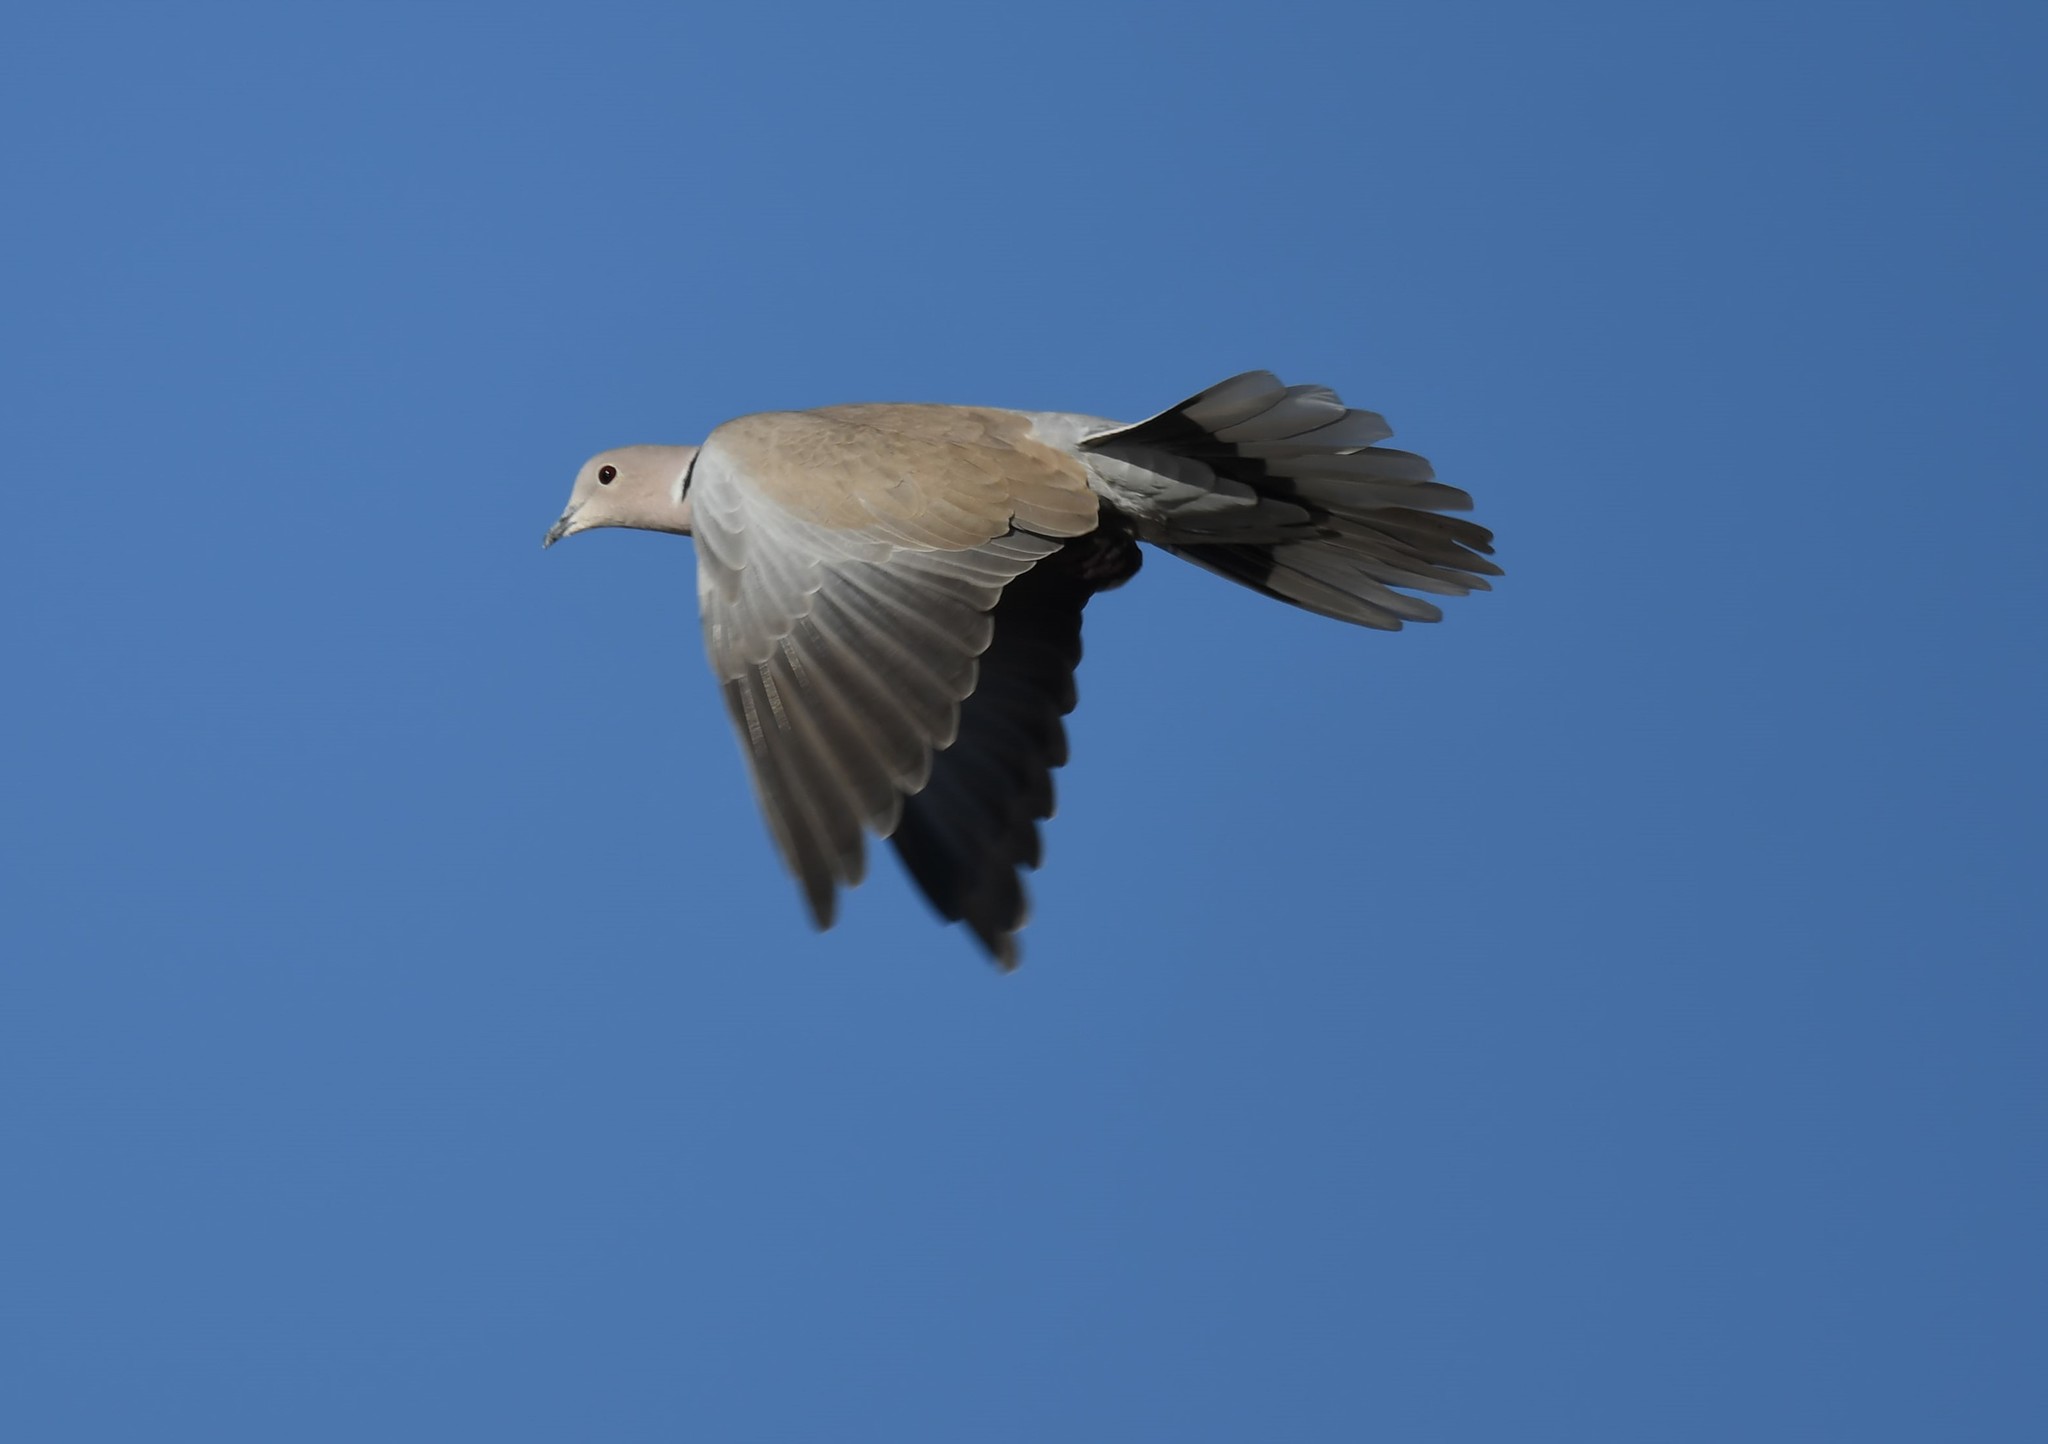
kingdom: Animalia
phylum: Chordata
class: Aves
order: Columbiformes
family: Columbidae
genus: Streptopelia
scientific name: Streptopelia decaocto
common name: Eurasian collared dove
